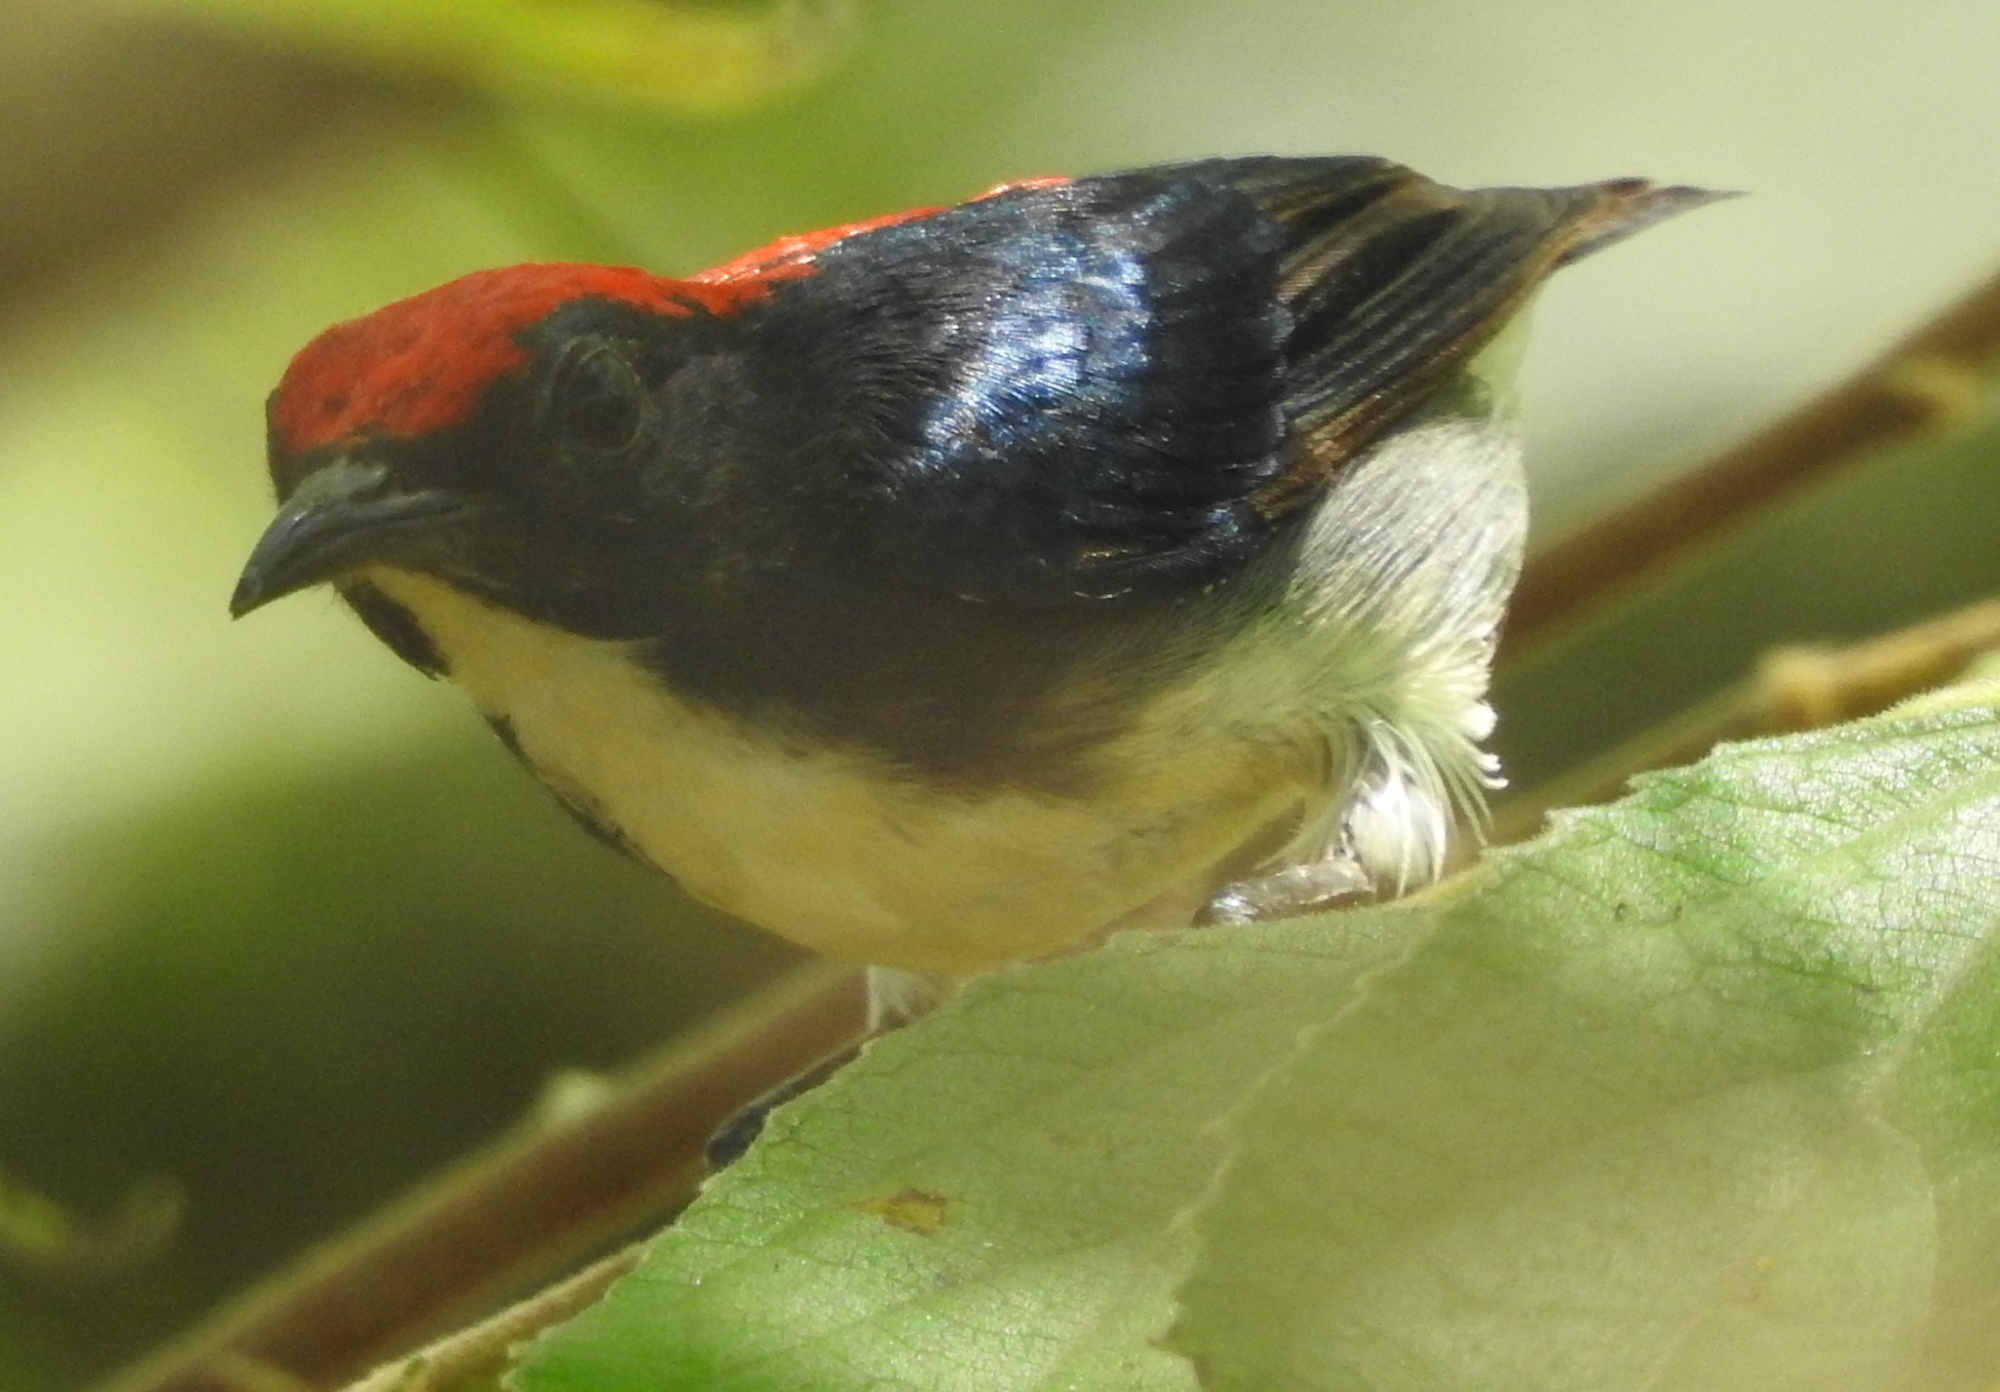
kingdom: Animalia
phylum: Chordata
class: Aves
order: Passeriformes
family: Dicaeidae
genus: Dicaeum
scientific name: Dicaeum cruentatum
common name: Scarlet-backed flowerpecker
